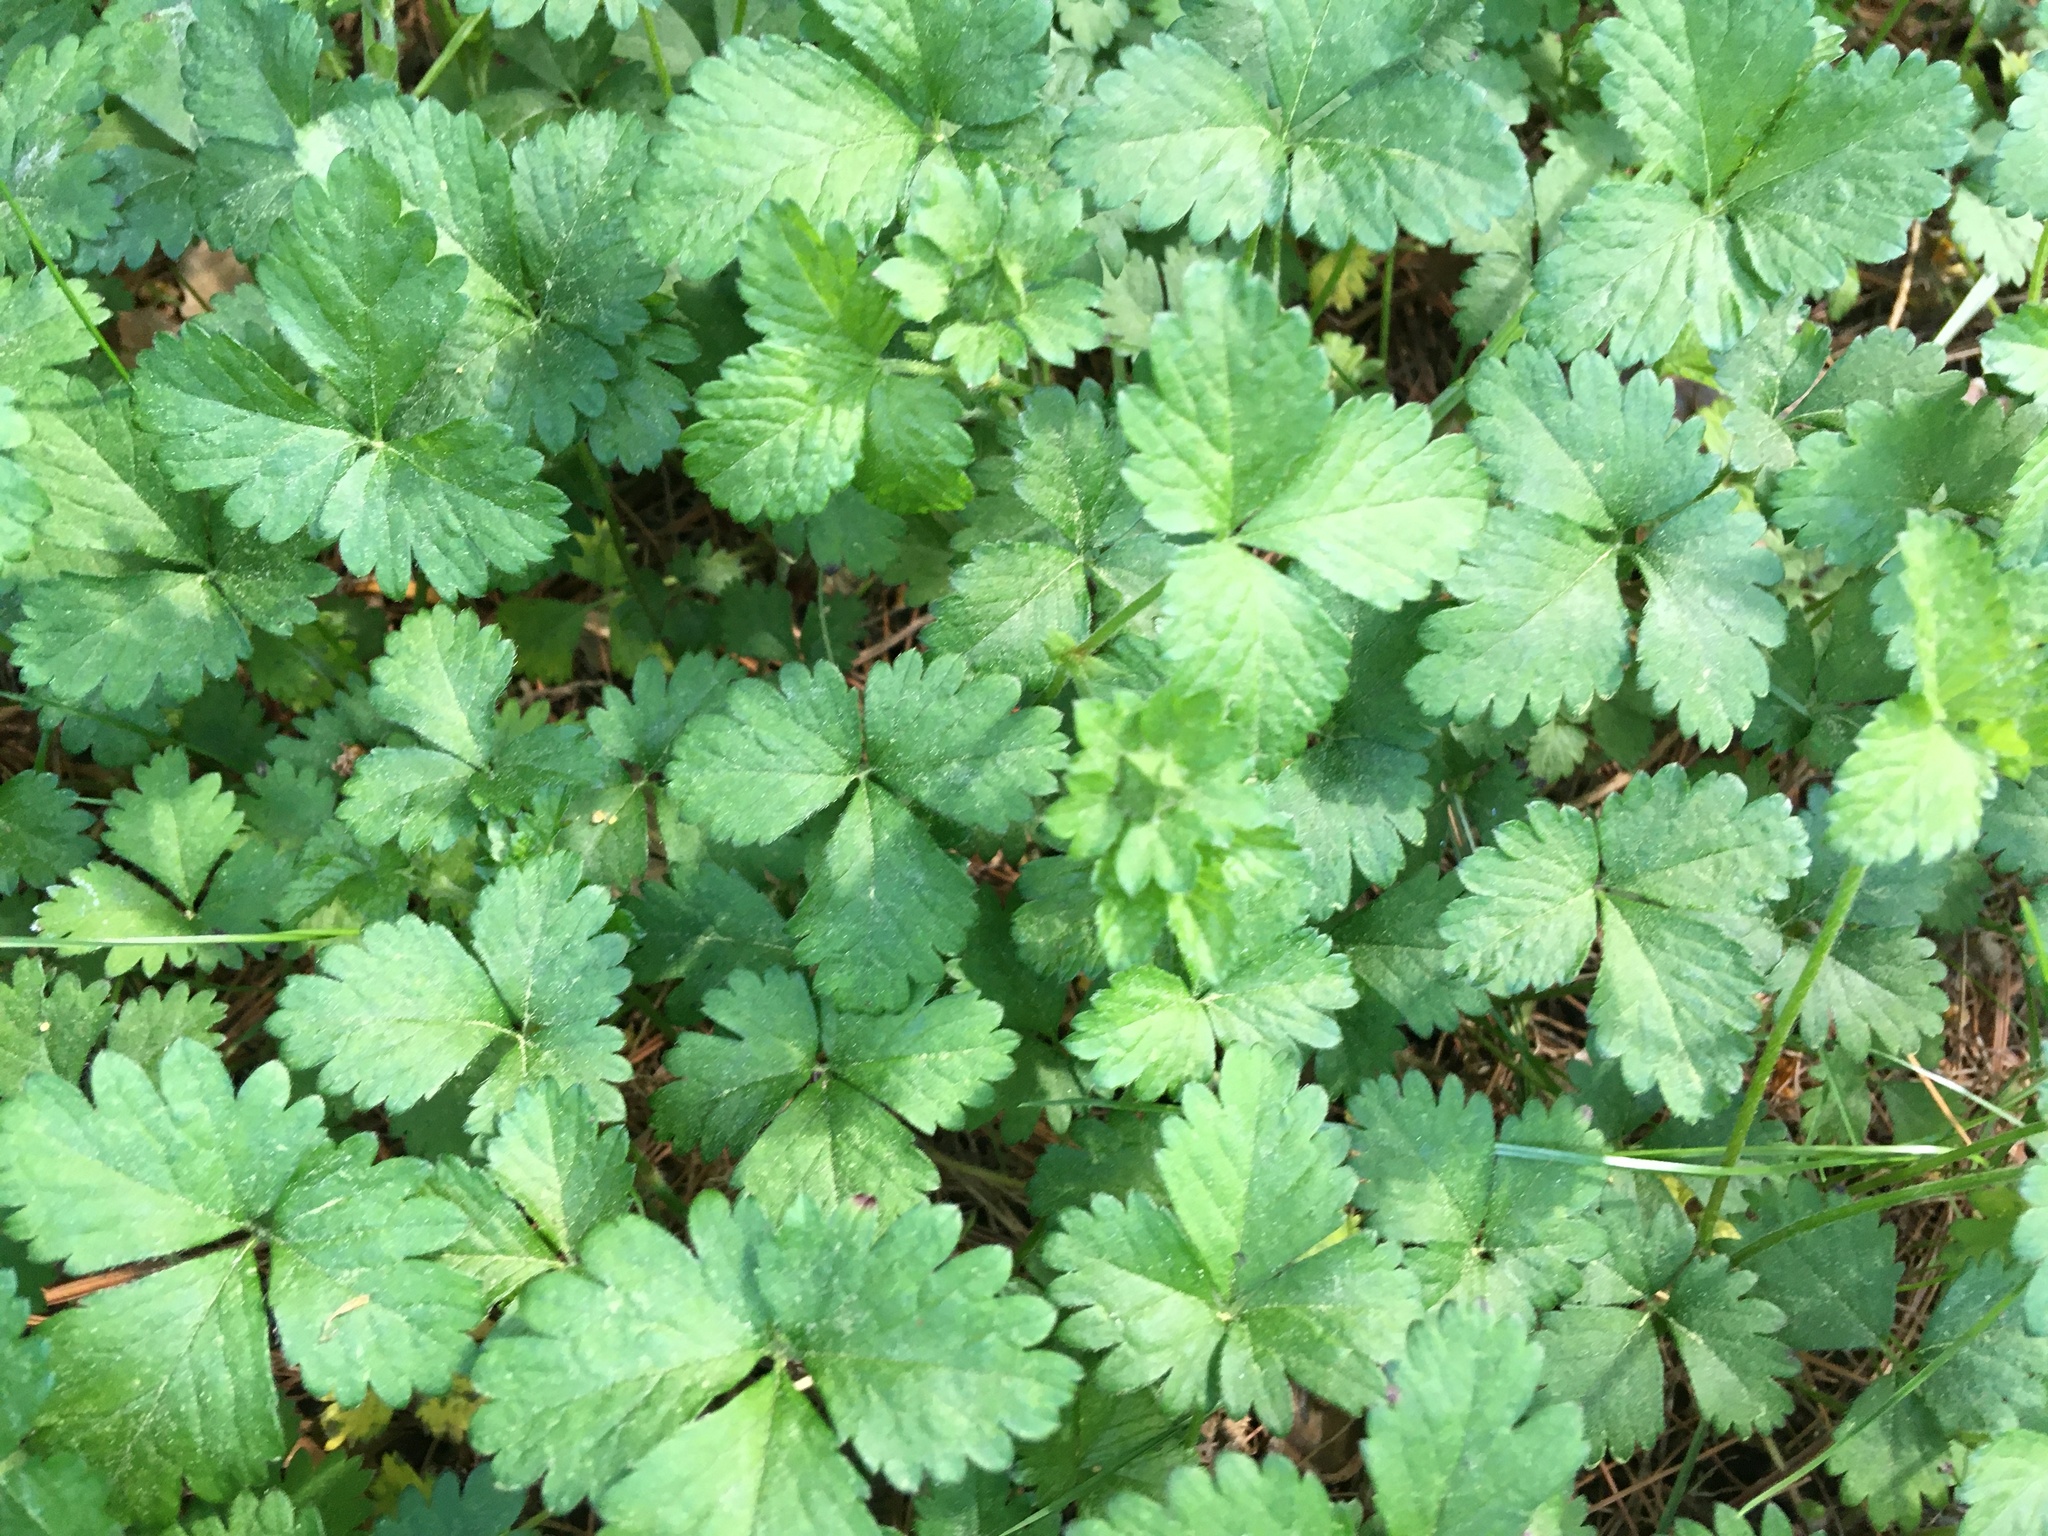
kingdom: Plantae
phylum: Tracheophyta
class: Magnoliopsida
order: Rosales
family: Rosaceae
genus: Potentilla
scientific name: Potentilla indica
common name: Yellow-flowered strawberry
